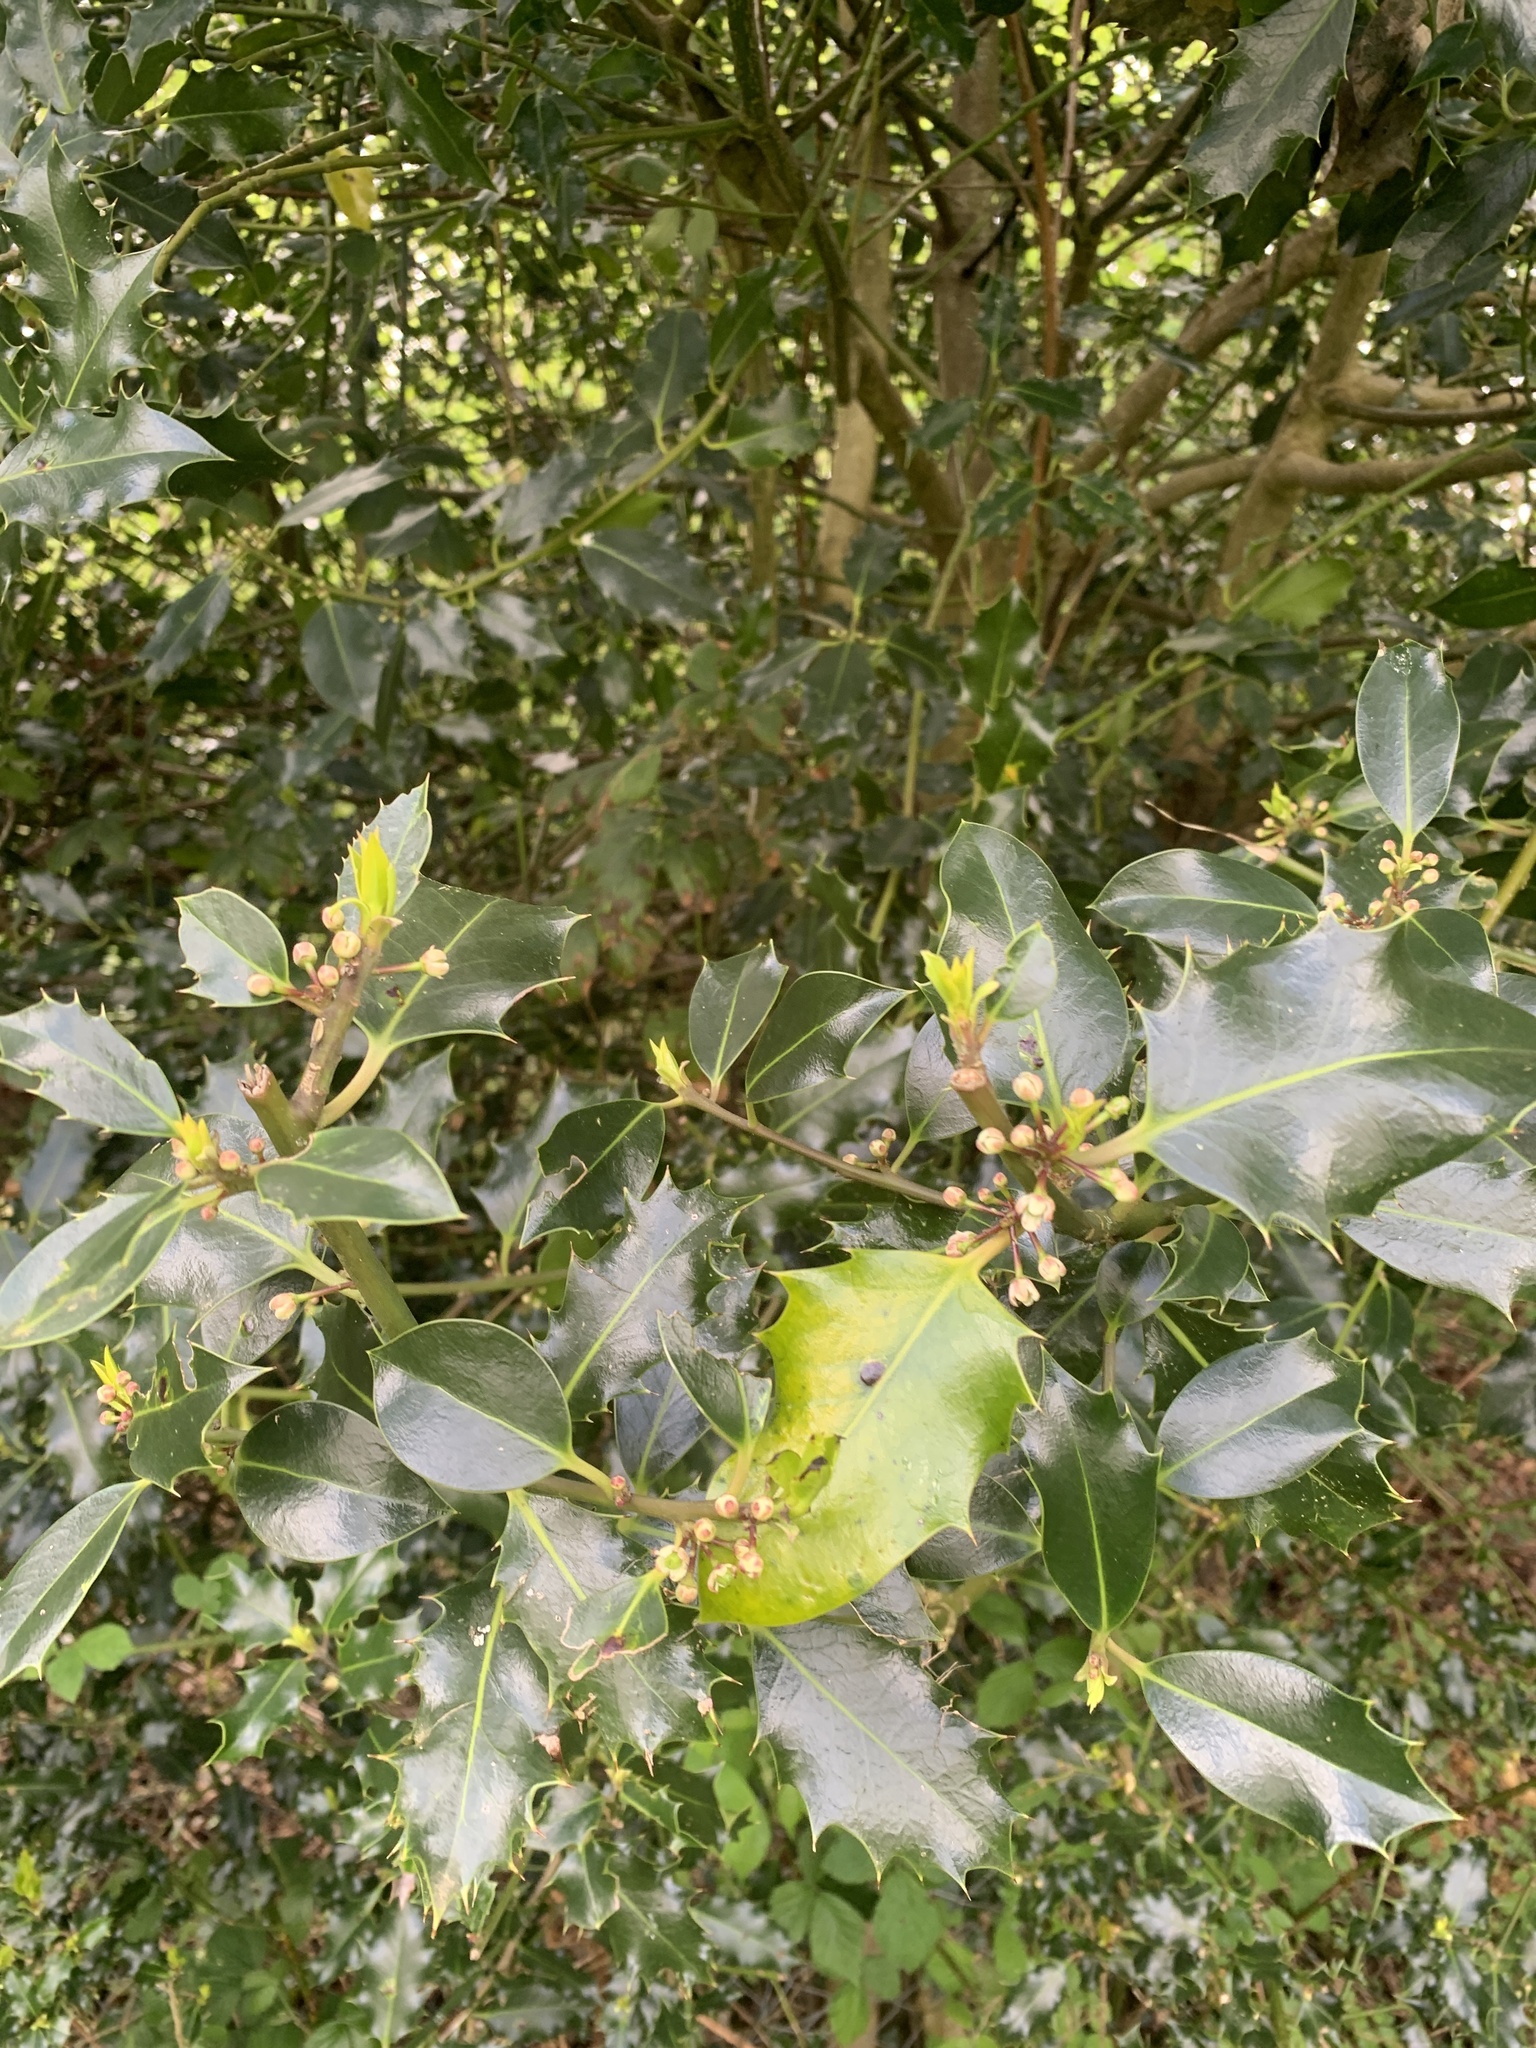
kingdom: Plantae
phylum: Tracheophyta
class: Magnoliopsida
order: Aquifoliales
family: Aquifoliaceae
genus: Ilex
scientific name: Ilex aquifolium
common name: English holly
